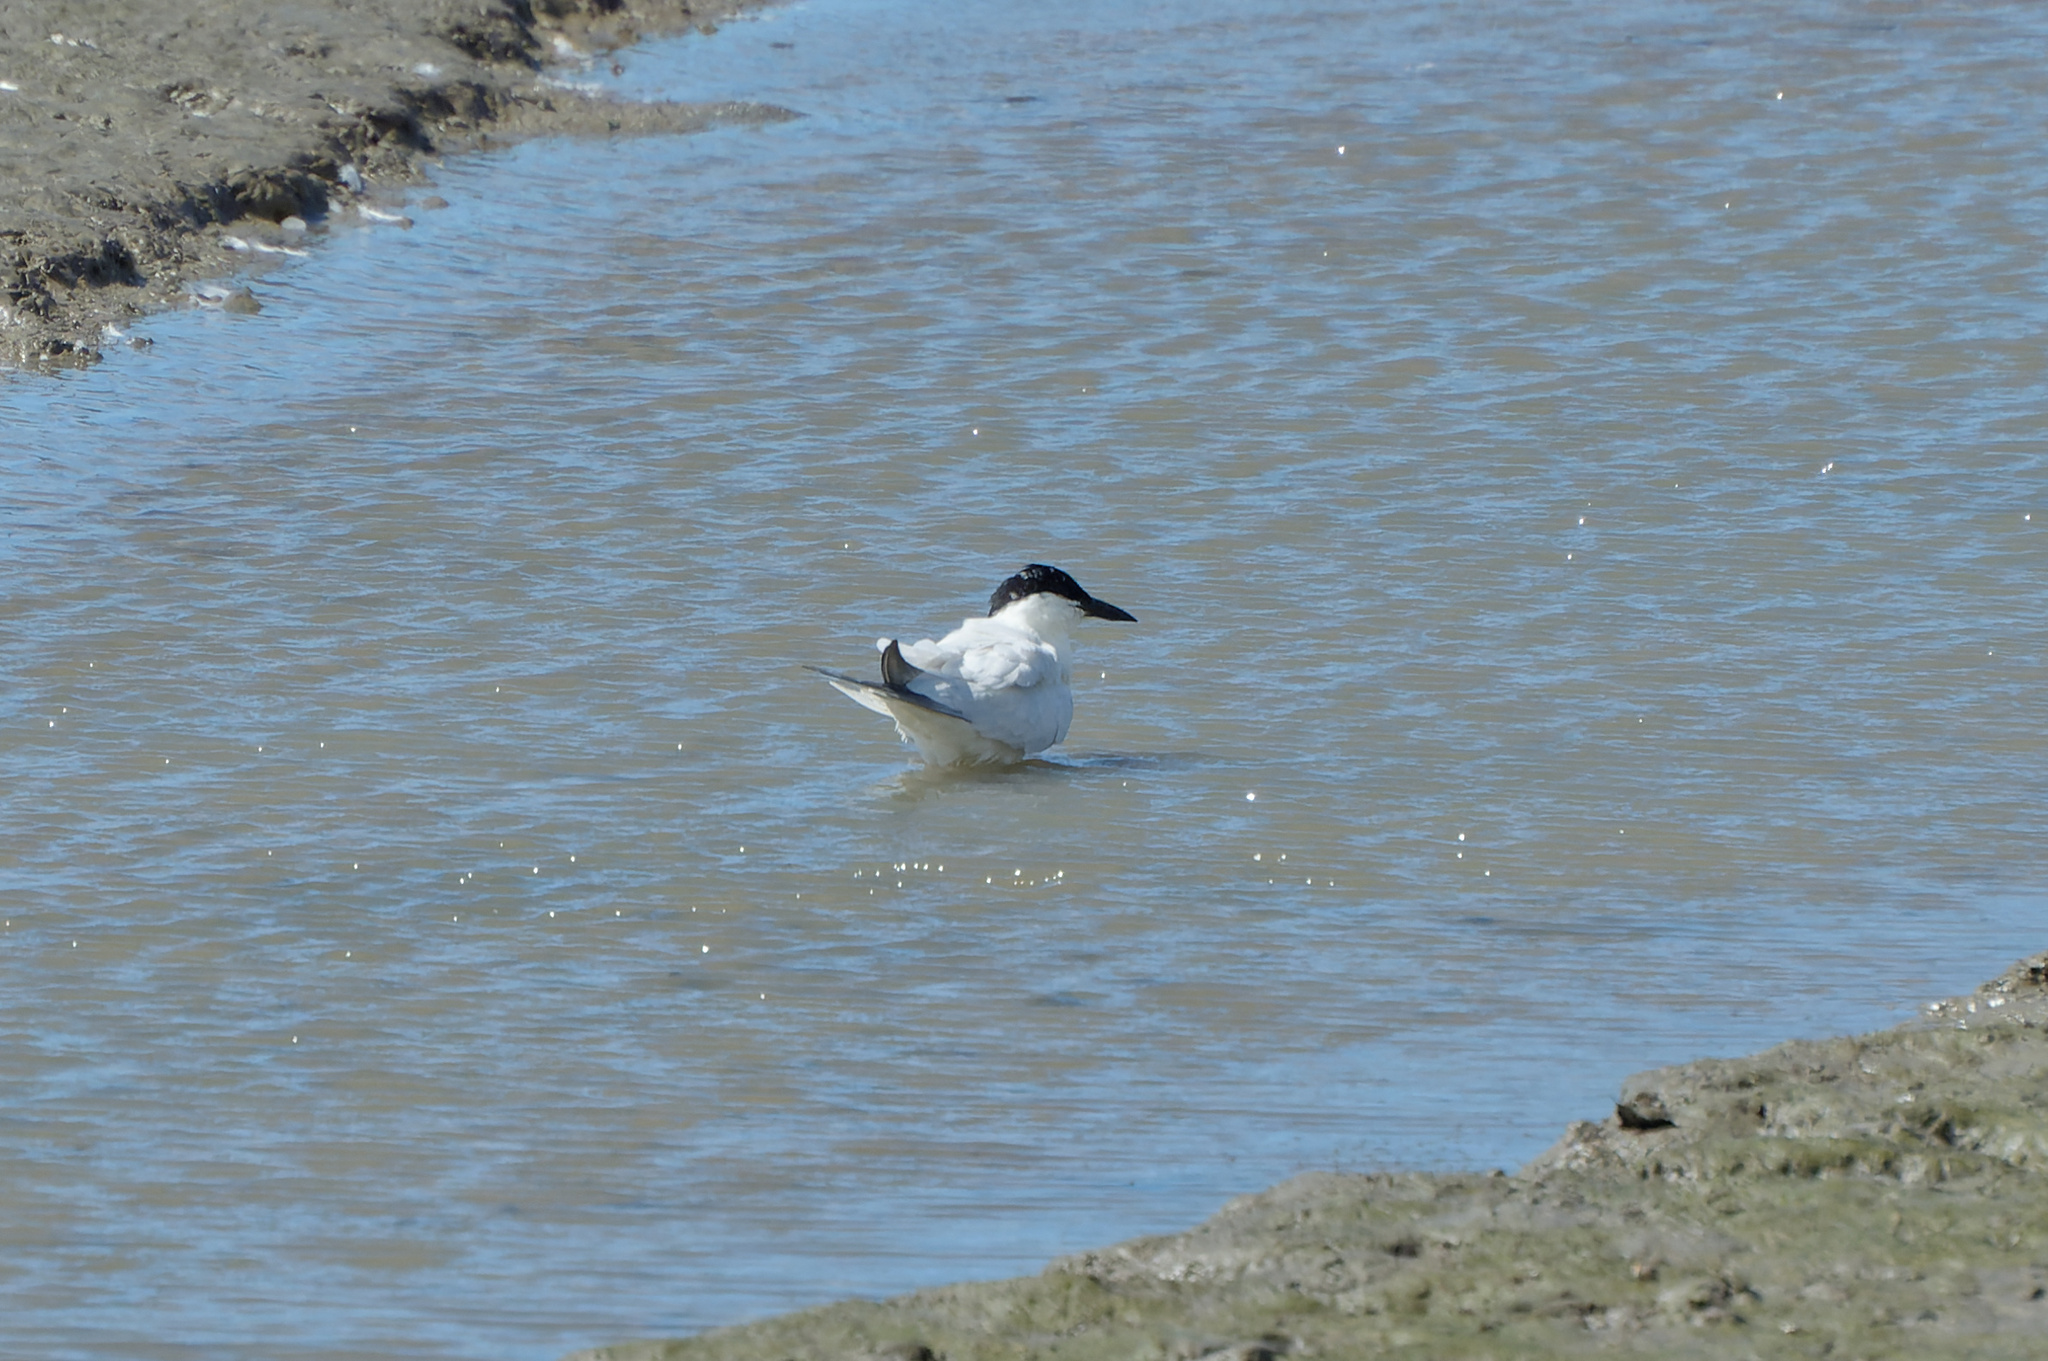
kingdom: Animalia
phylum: Chordata
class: Aves
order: Charadriiformes
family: Laridae
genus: Gelochelidon
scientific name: Gelochelidon macrotarsa
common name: Australian tern
